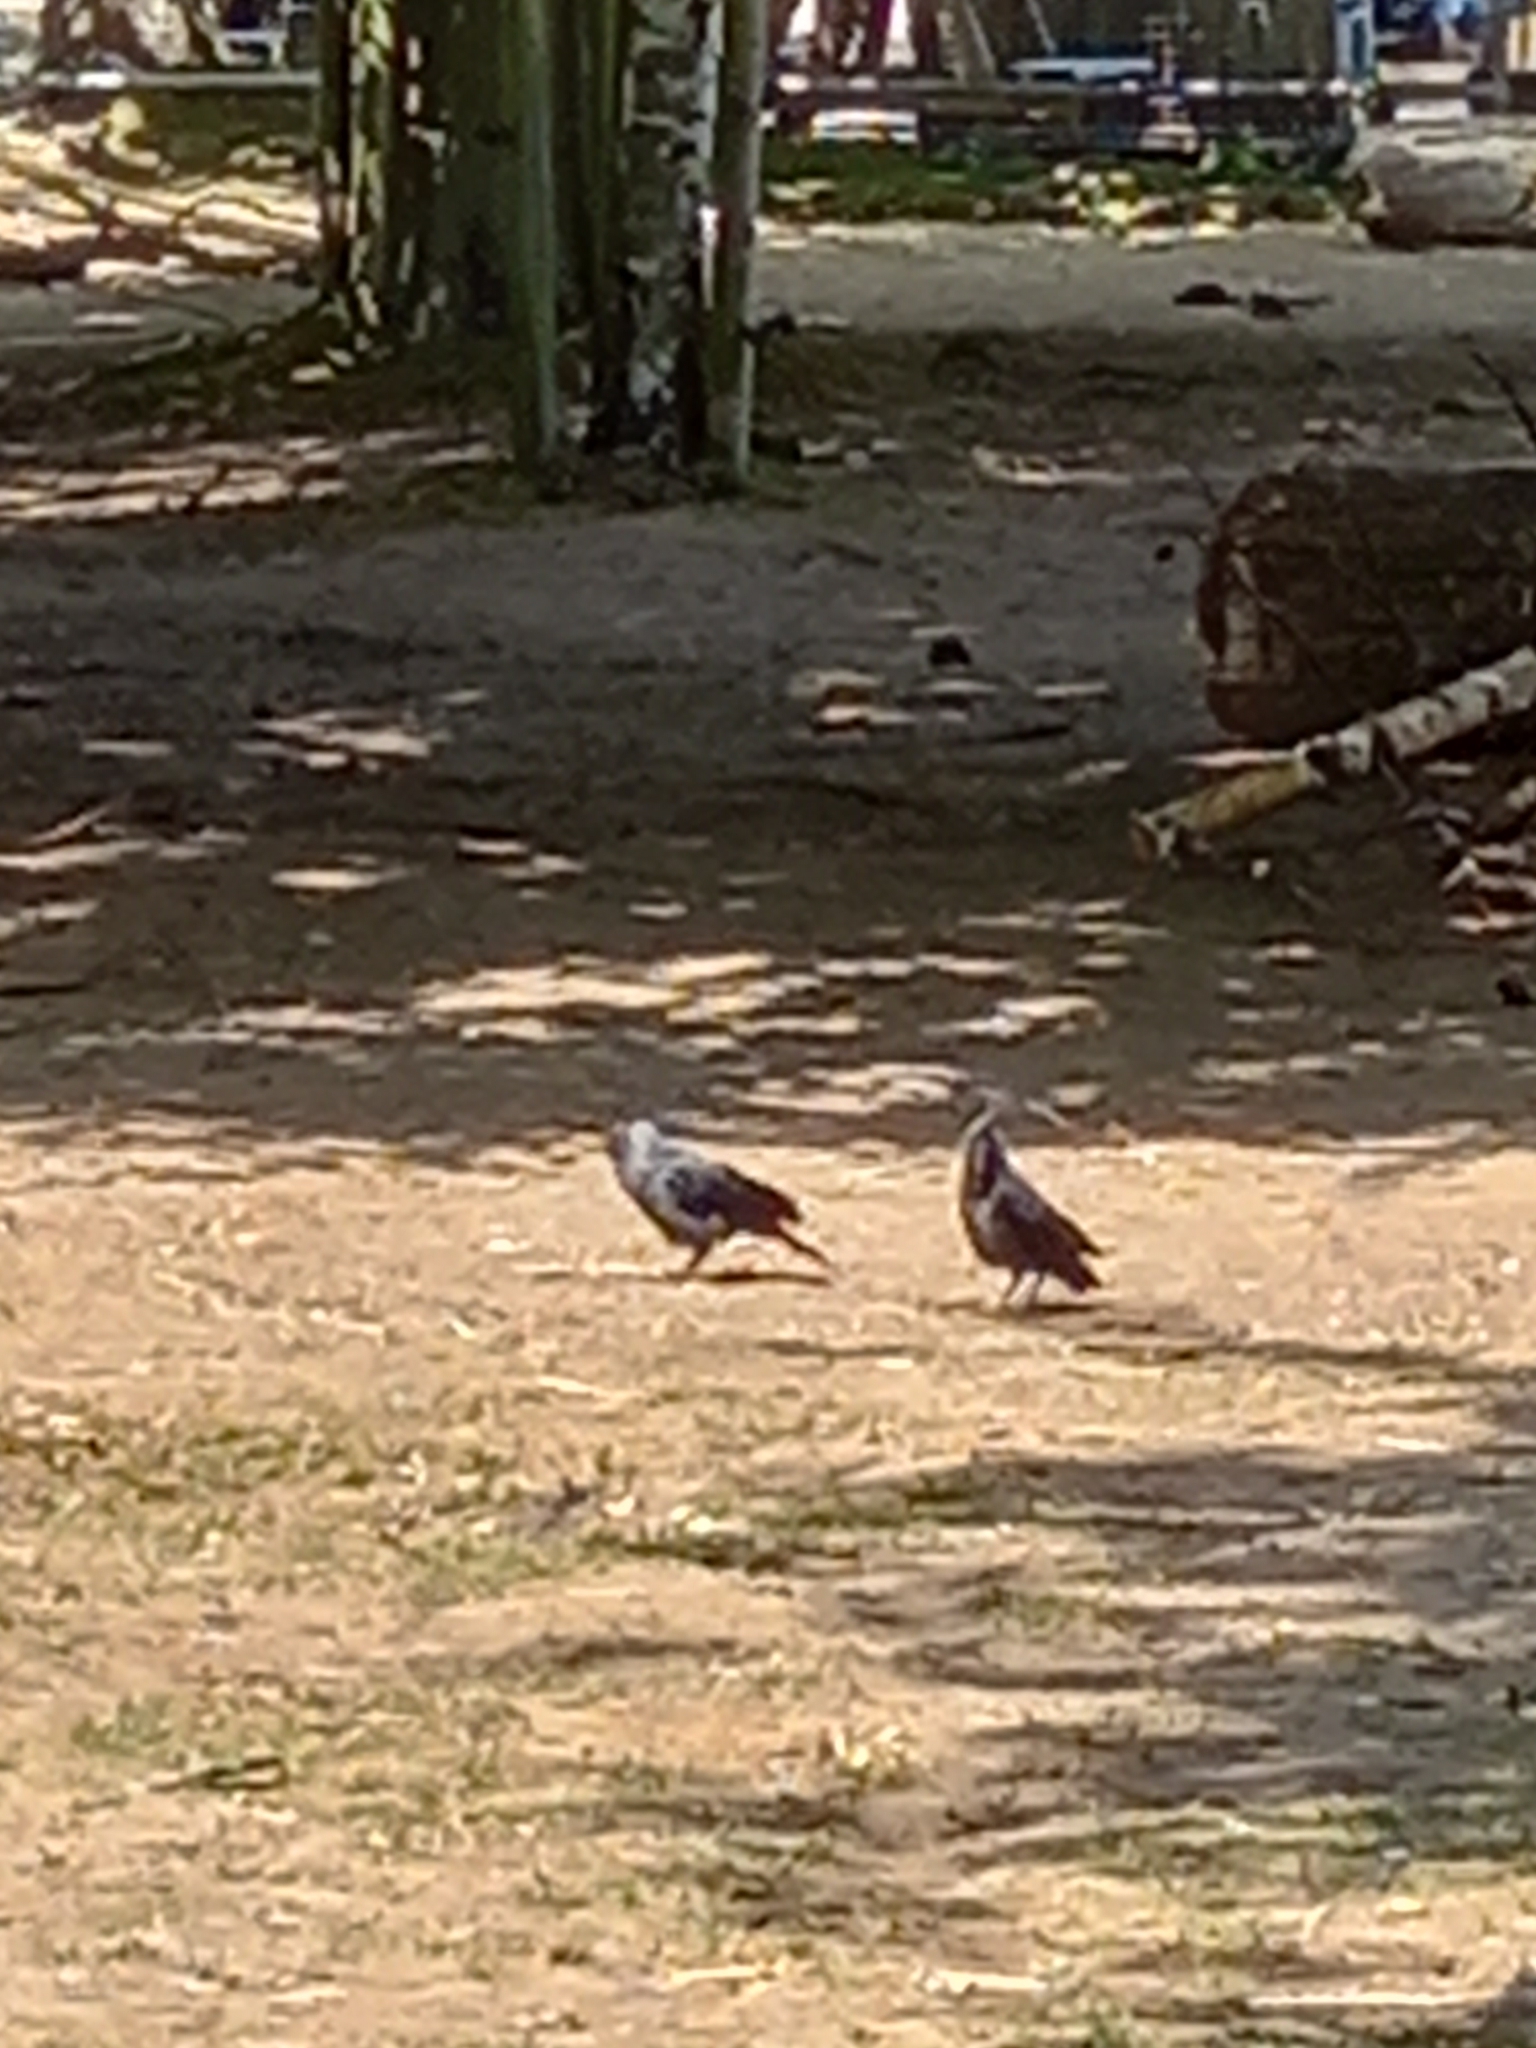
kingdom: Animalia
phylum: Chordata
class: Aves
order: Passeriformes
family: Corvidae
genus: Coloeus
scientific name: Coloeus monedula
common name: Western jackdaw
